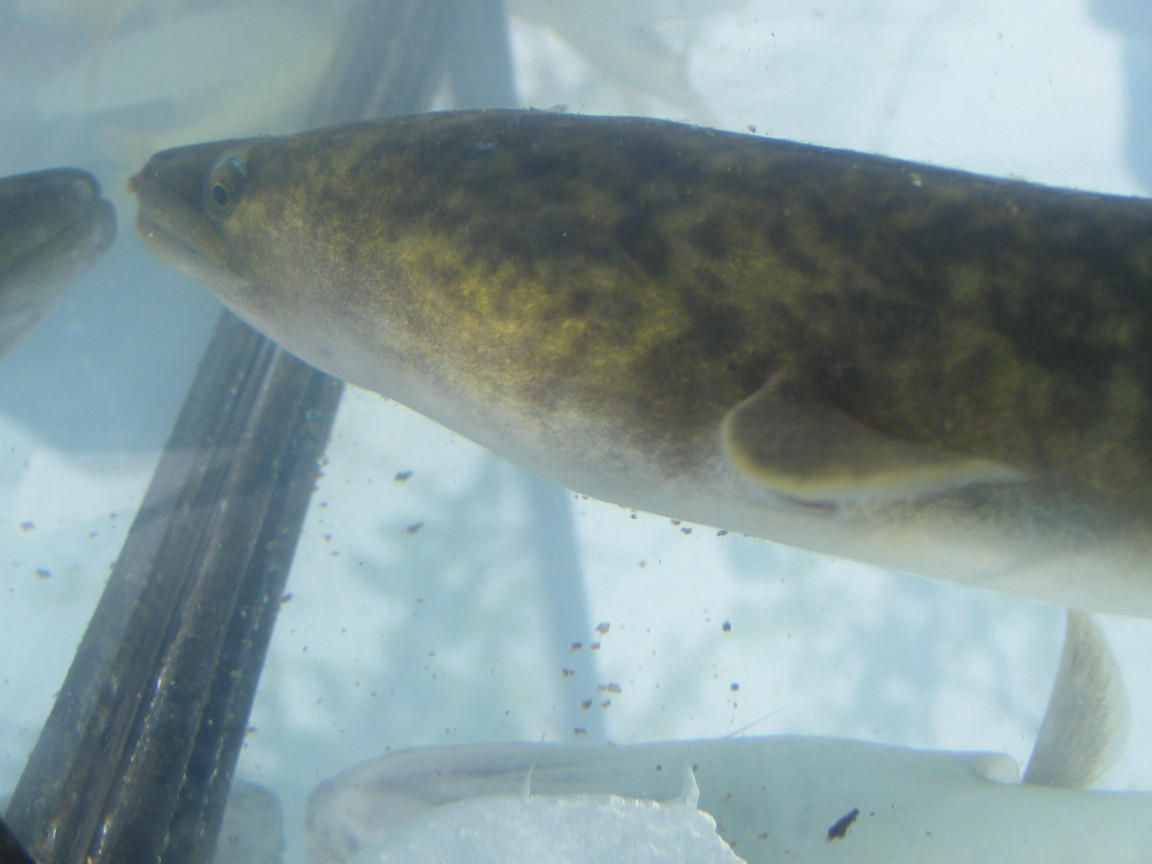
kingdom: Animalia
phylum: Chordata
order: Anguilliformes
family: Anguillidae
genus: Anguilla
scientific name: Anguilla marmorata
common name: Giant mottled eel
